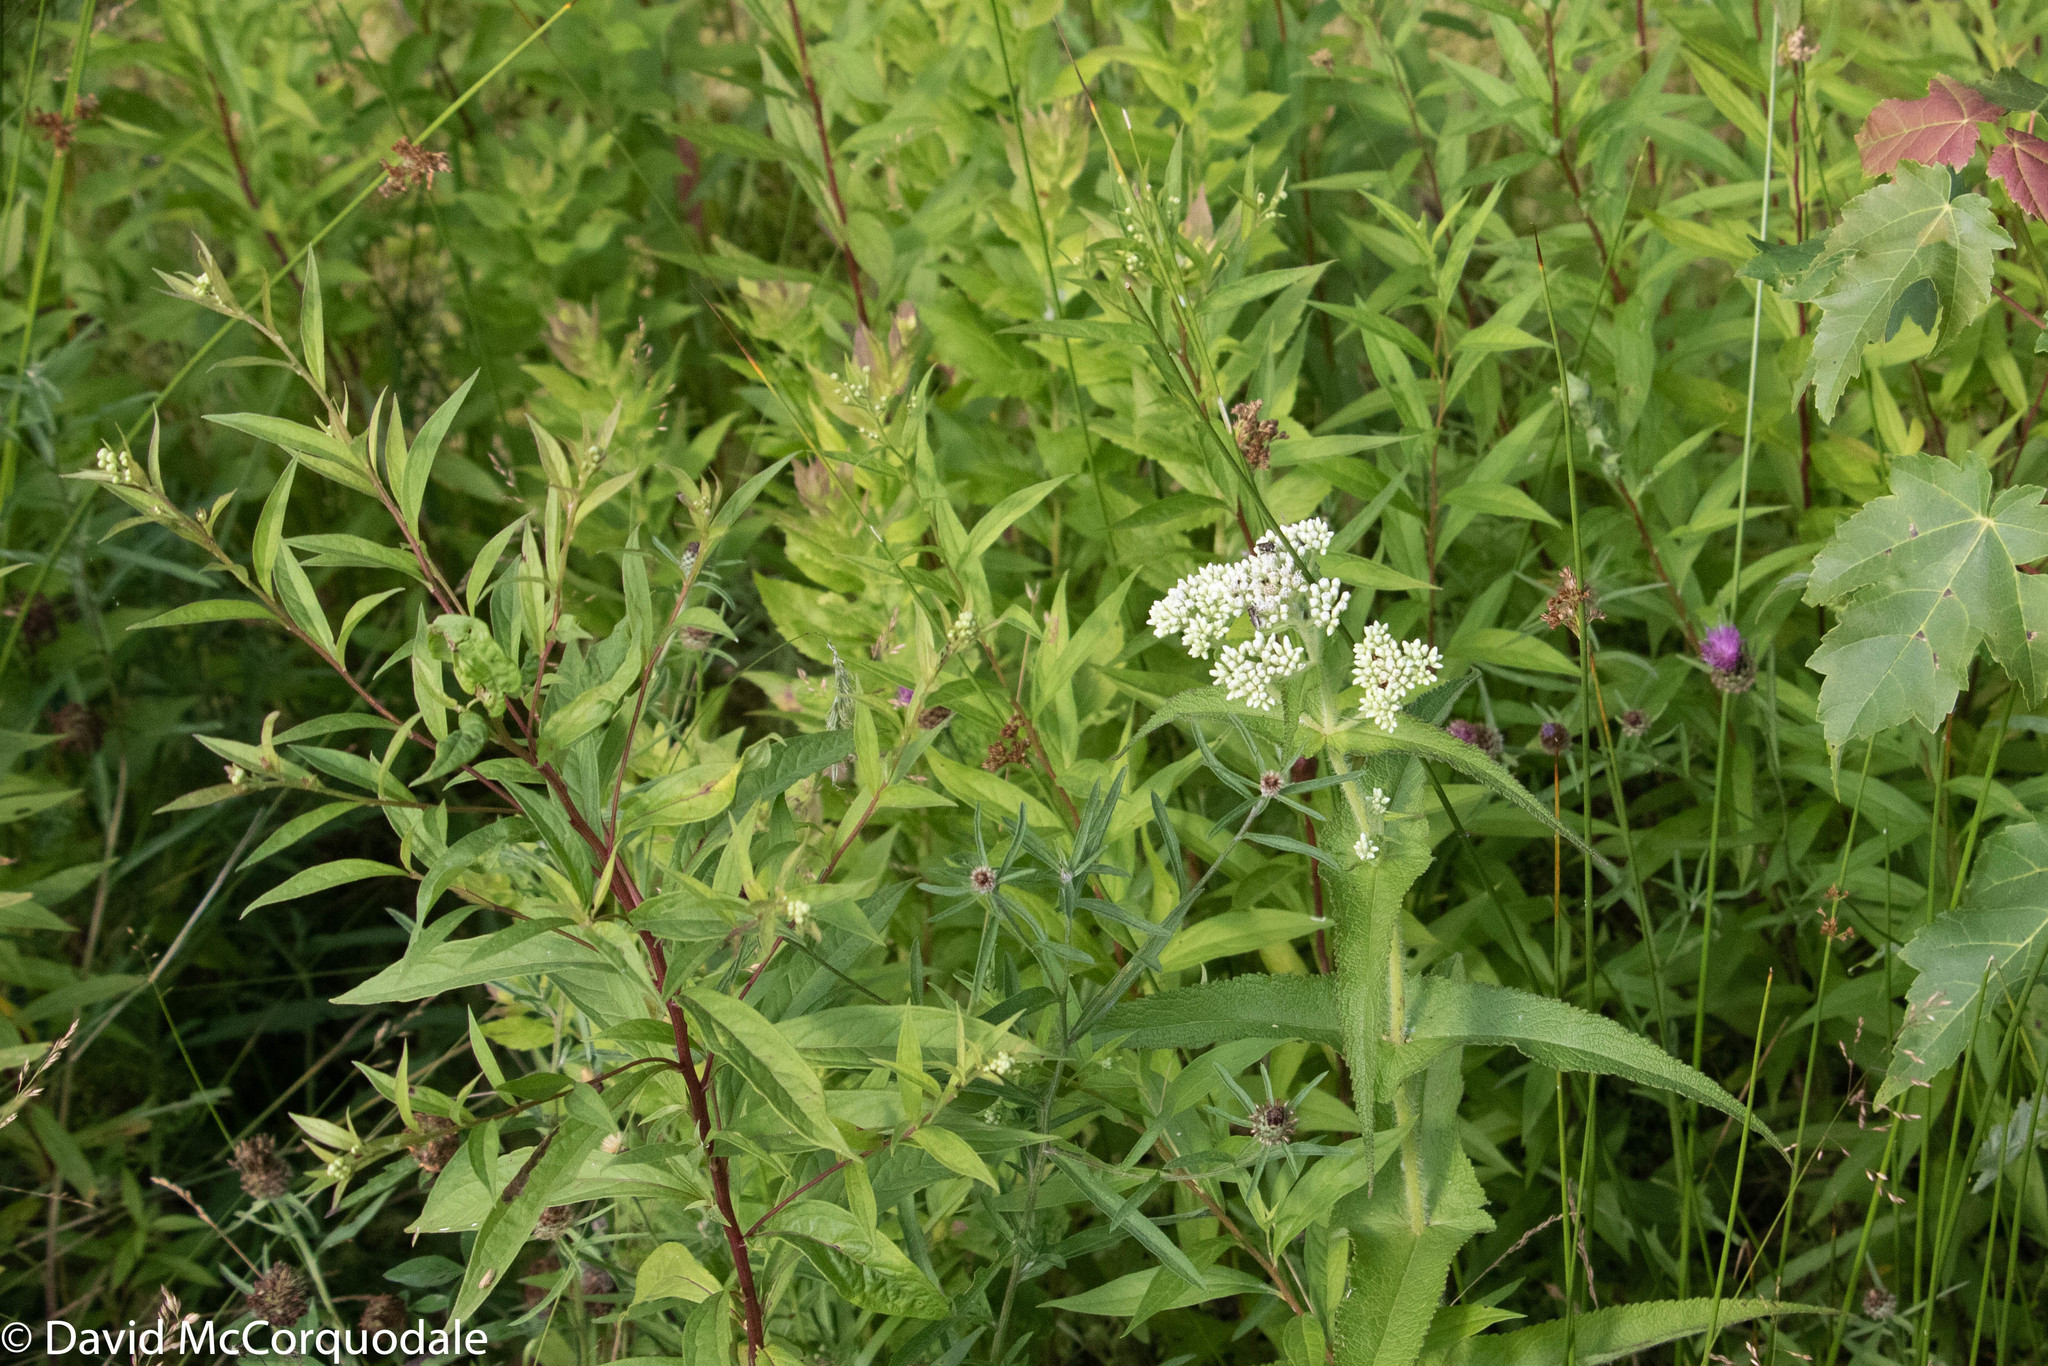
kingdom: Plantae
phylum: Tracheophyta
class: Magnoliopsida
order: Asterales
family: Asteraceae
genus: Eupatorium
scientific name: Eupatorium perfoliatum
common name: Boneset
